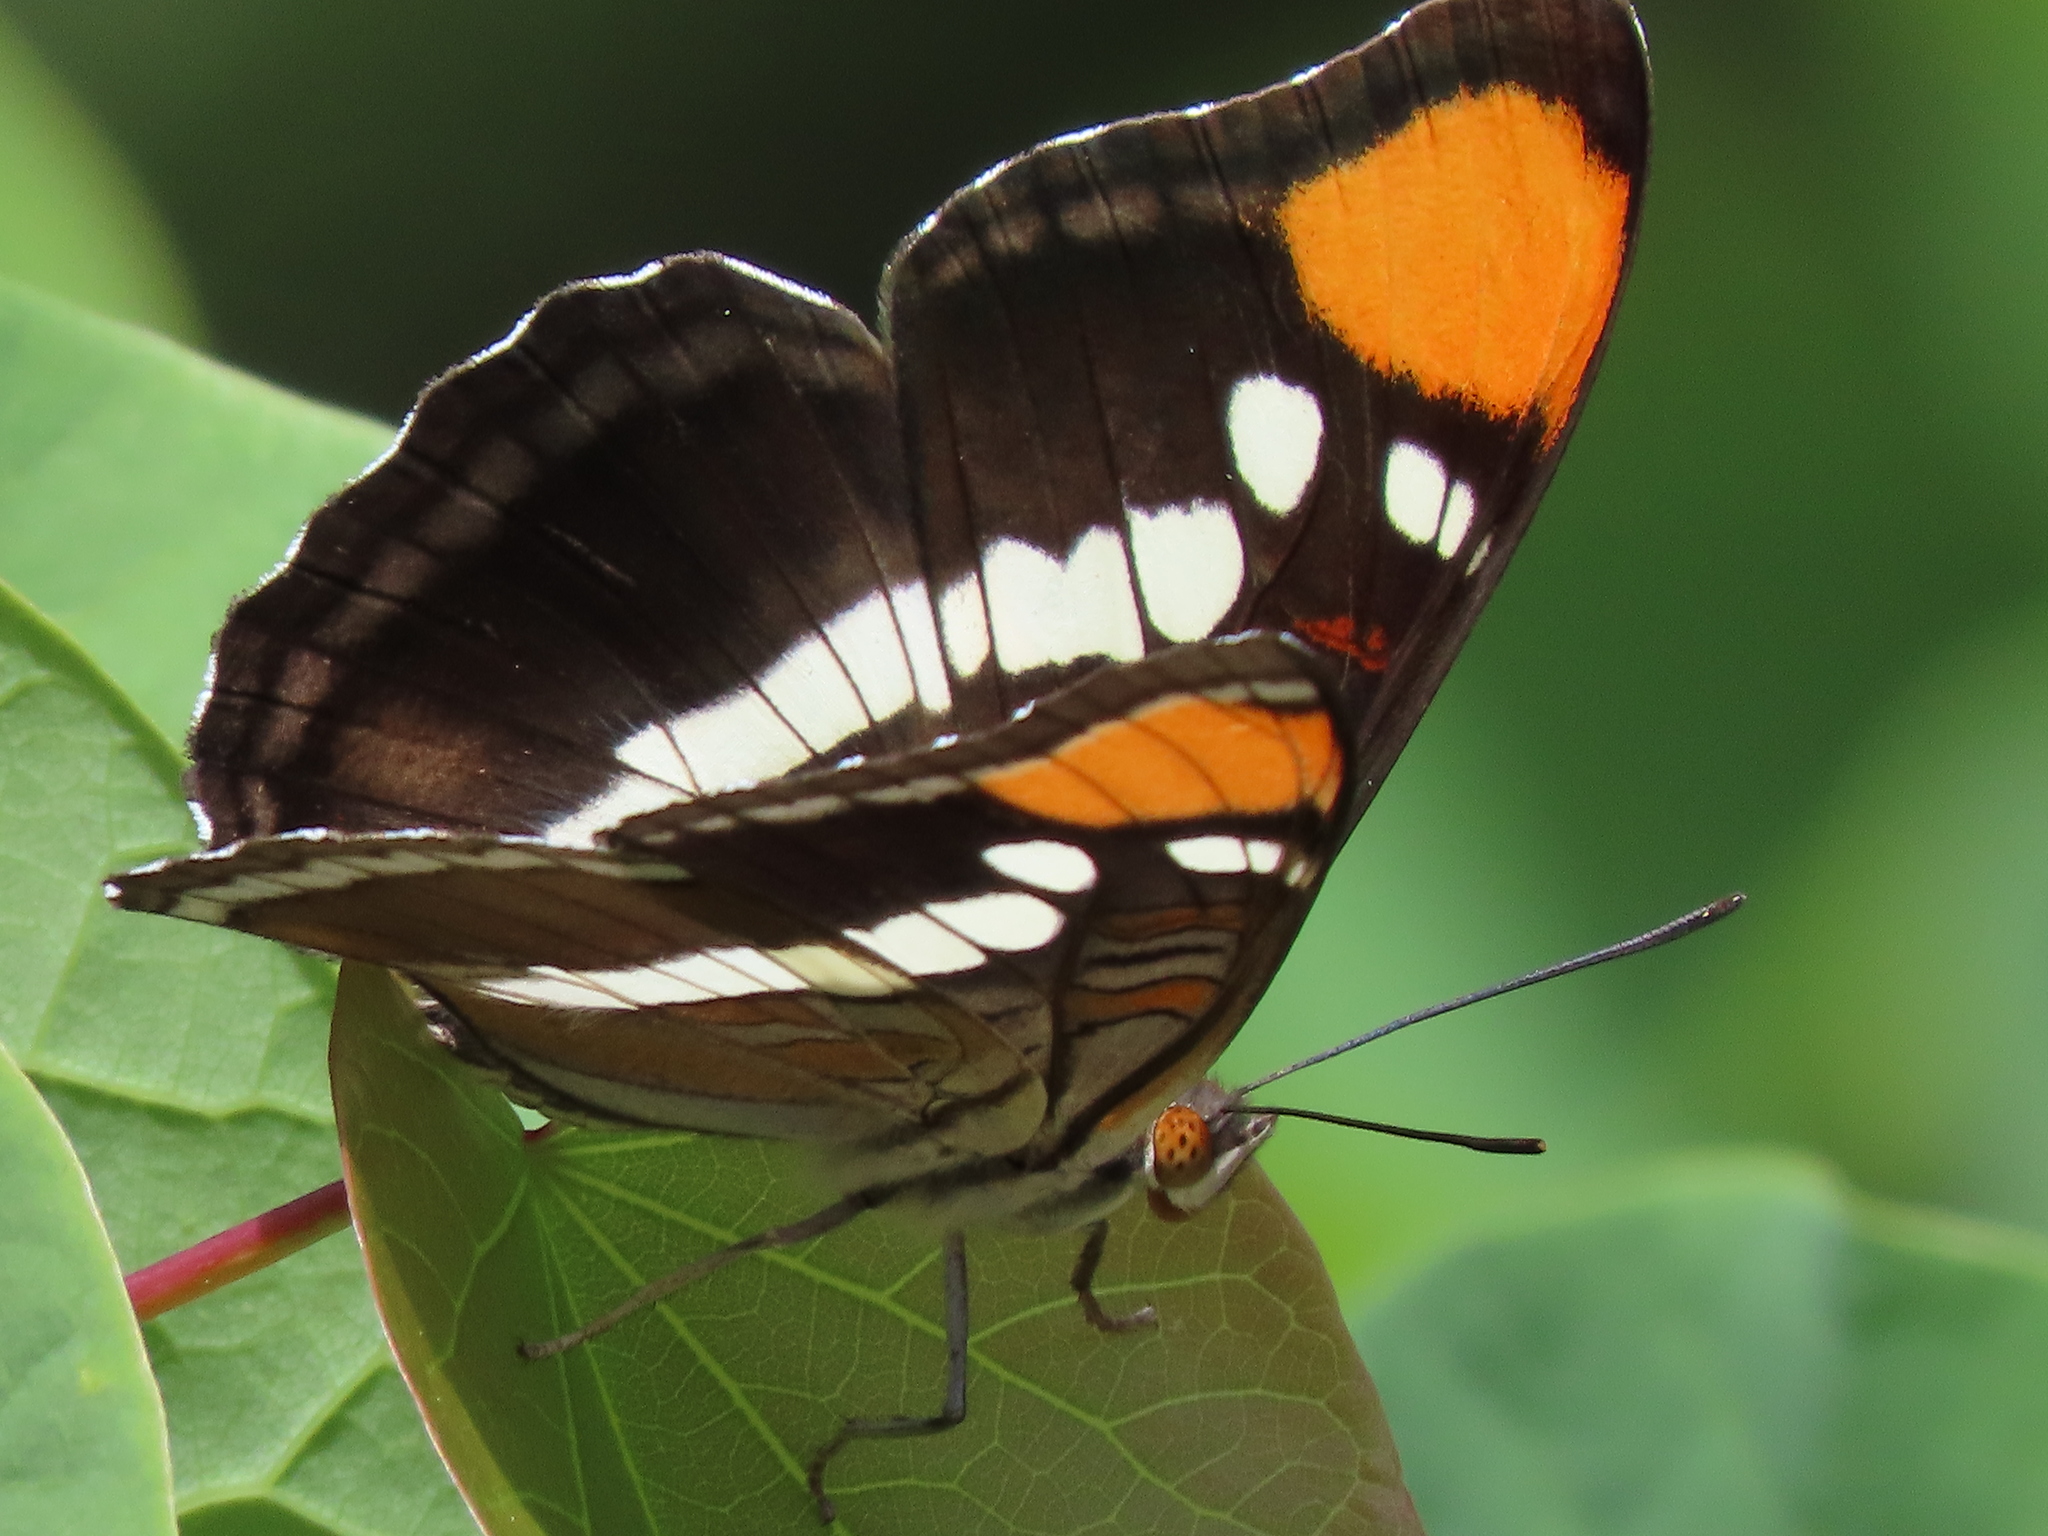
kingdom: Animalia
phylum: Arthropoda
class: Insecta
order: Lepidoptera
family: Nymphalidae
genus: Limenitis
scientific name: Limenitis bredowii
